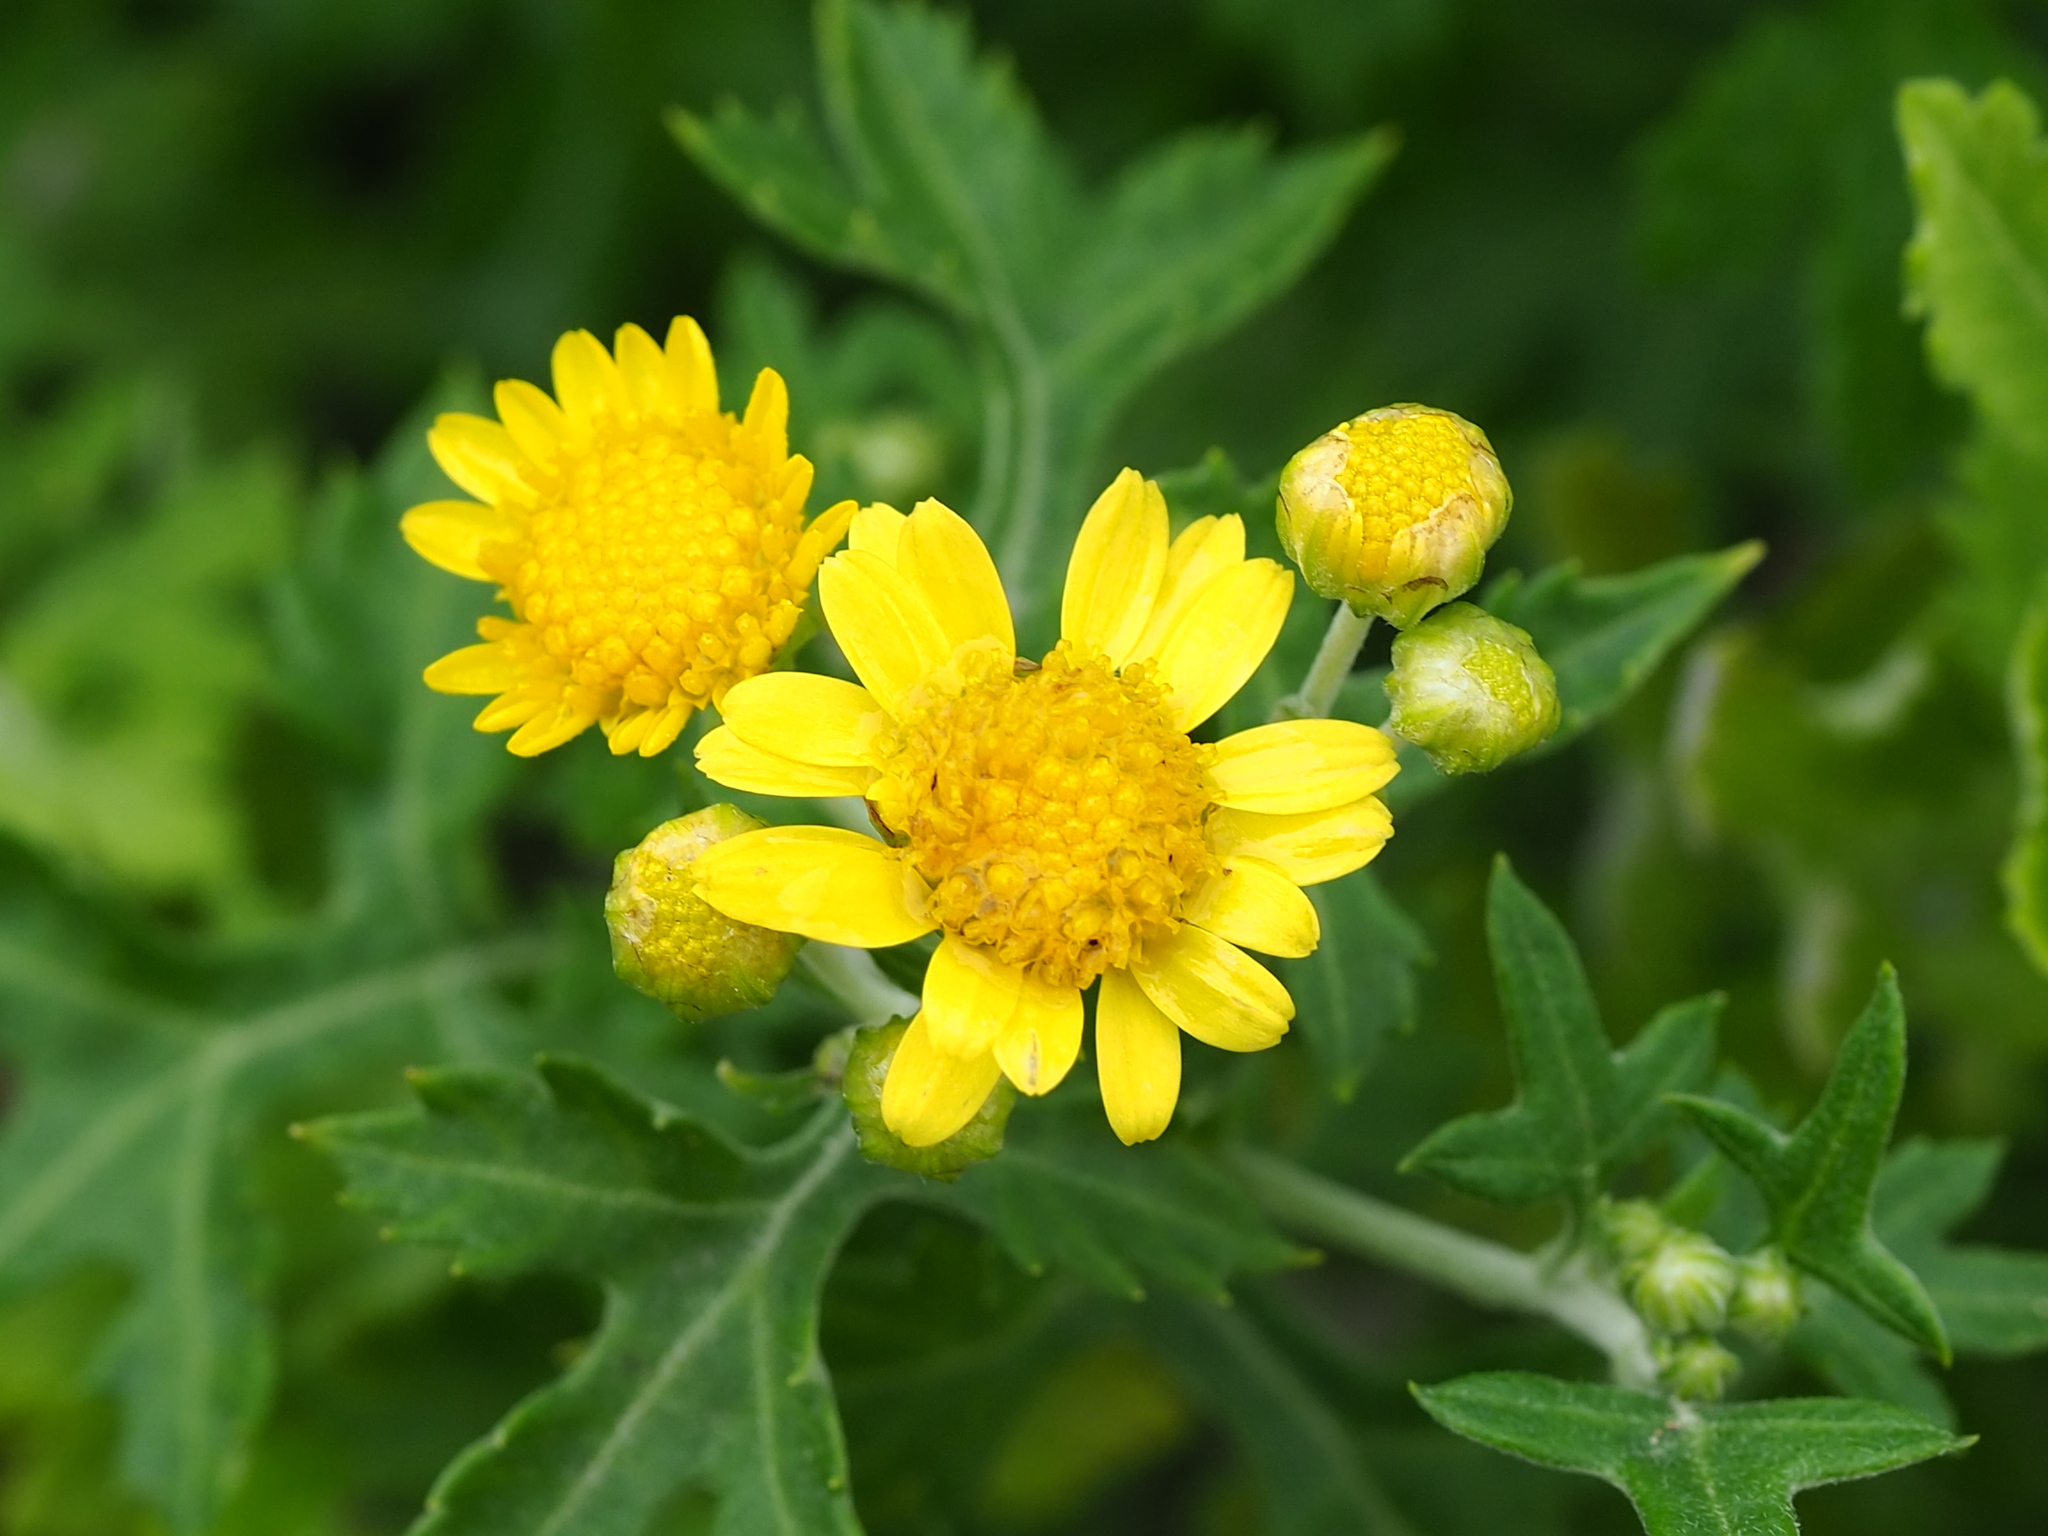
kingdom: Plantae
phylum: Tracheophyta
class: Magnoliopsida
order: Asterales
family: Asteraceae
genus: Chrysanthemum
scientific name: Chrysanthemum lavandulifolium
